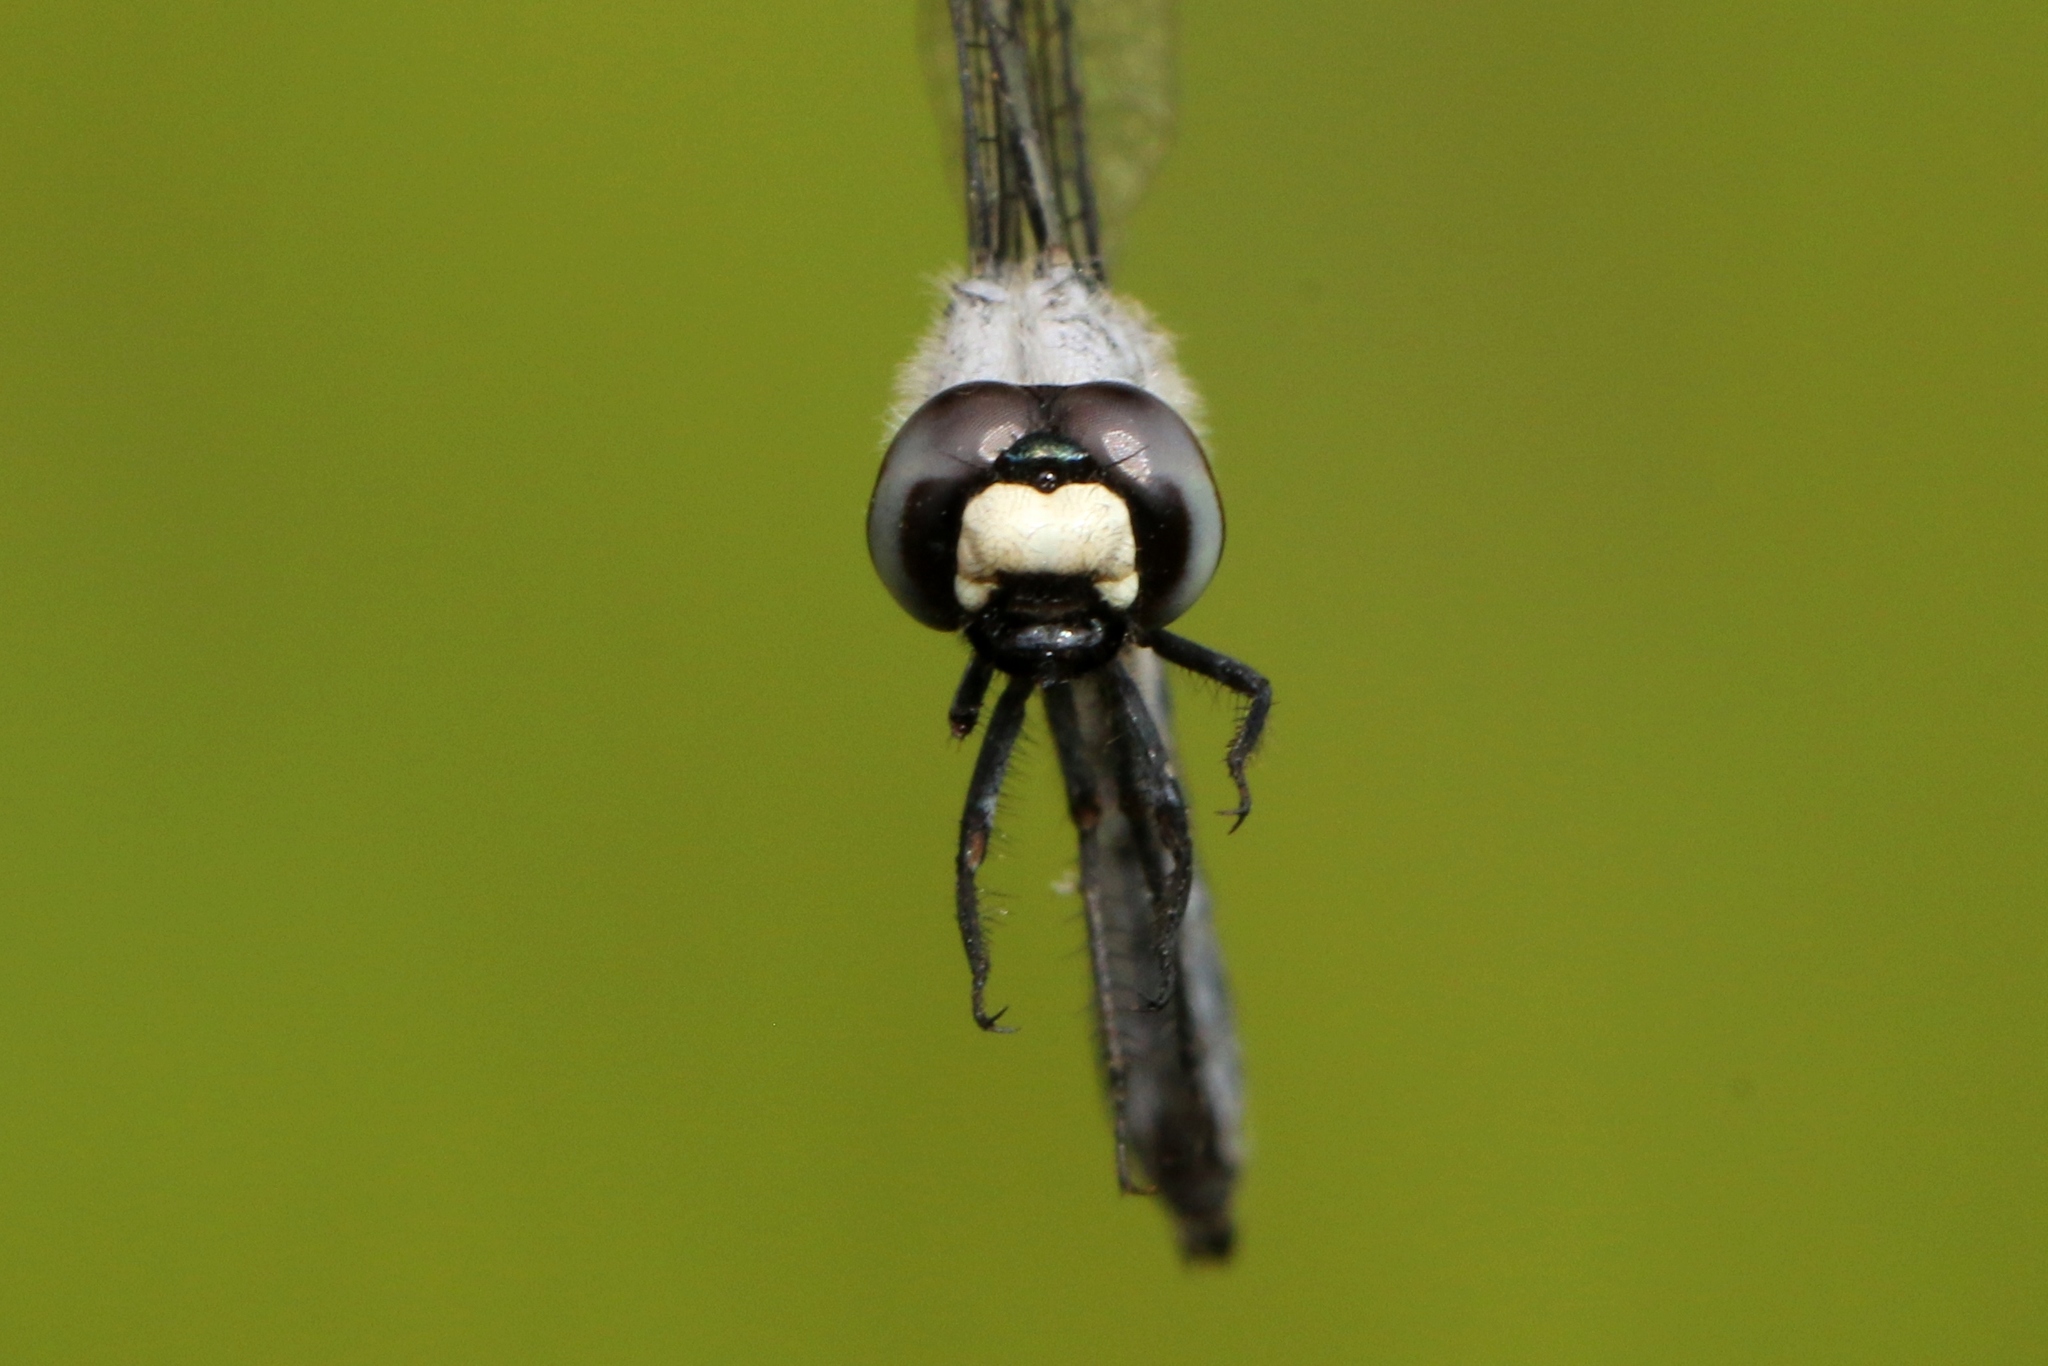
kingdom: Animalia
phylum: Arthropoda
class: Insecta
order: Odonata
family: Libellulidae
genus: Nannothemis
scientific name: Nannothemis bella
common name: Elfin skimmer
